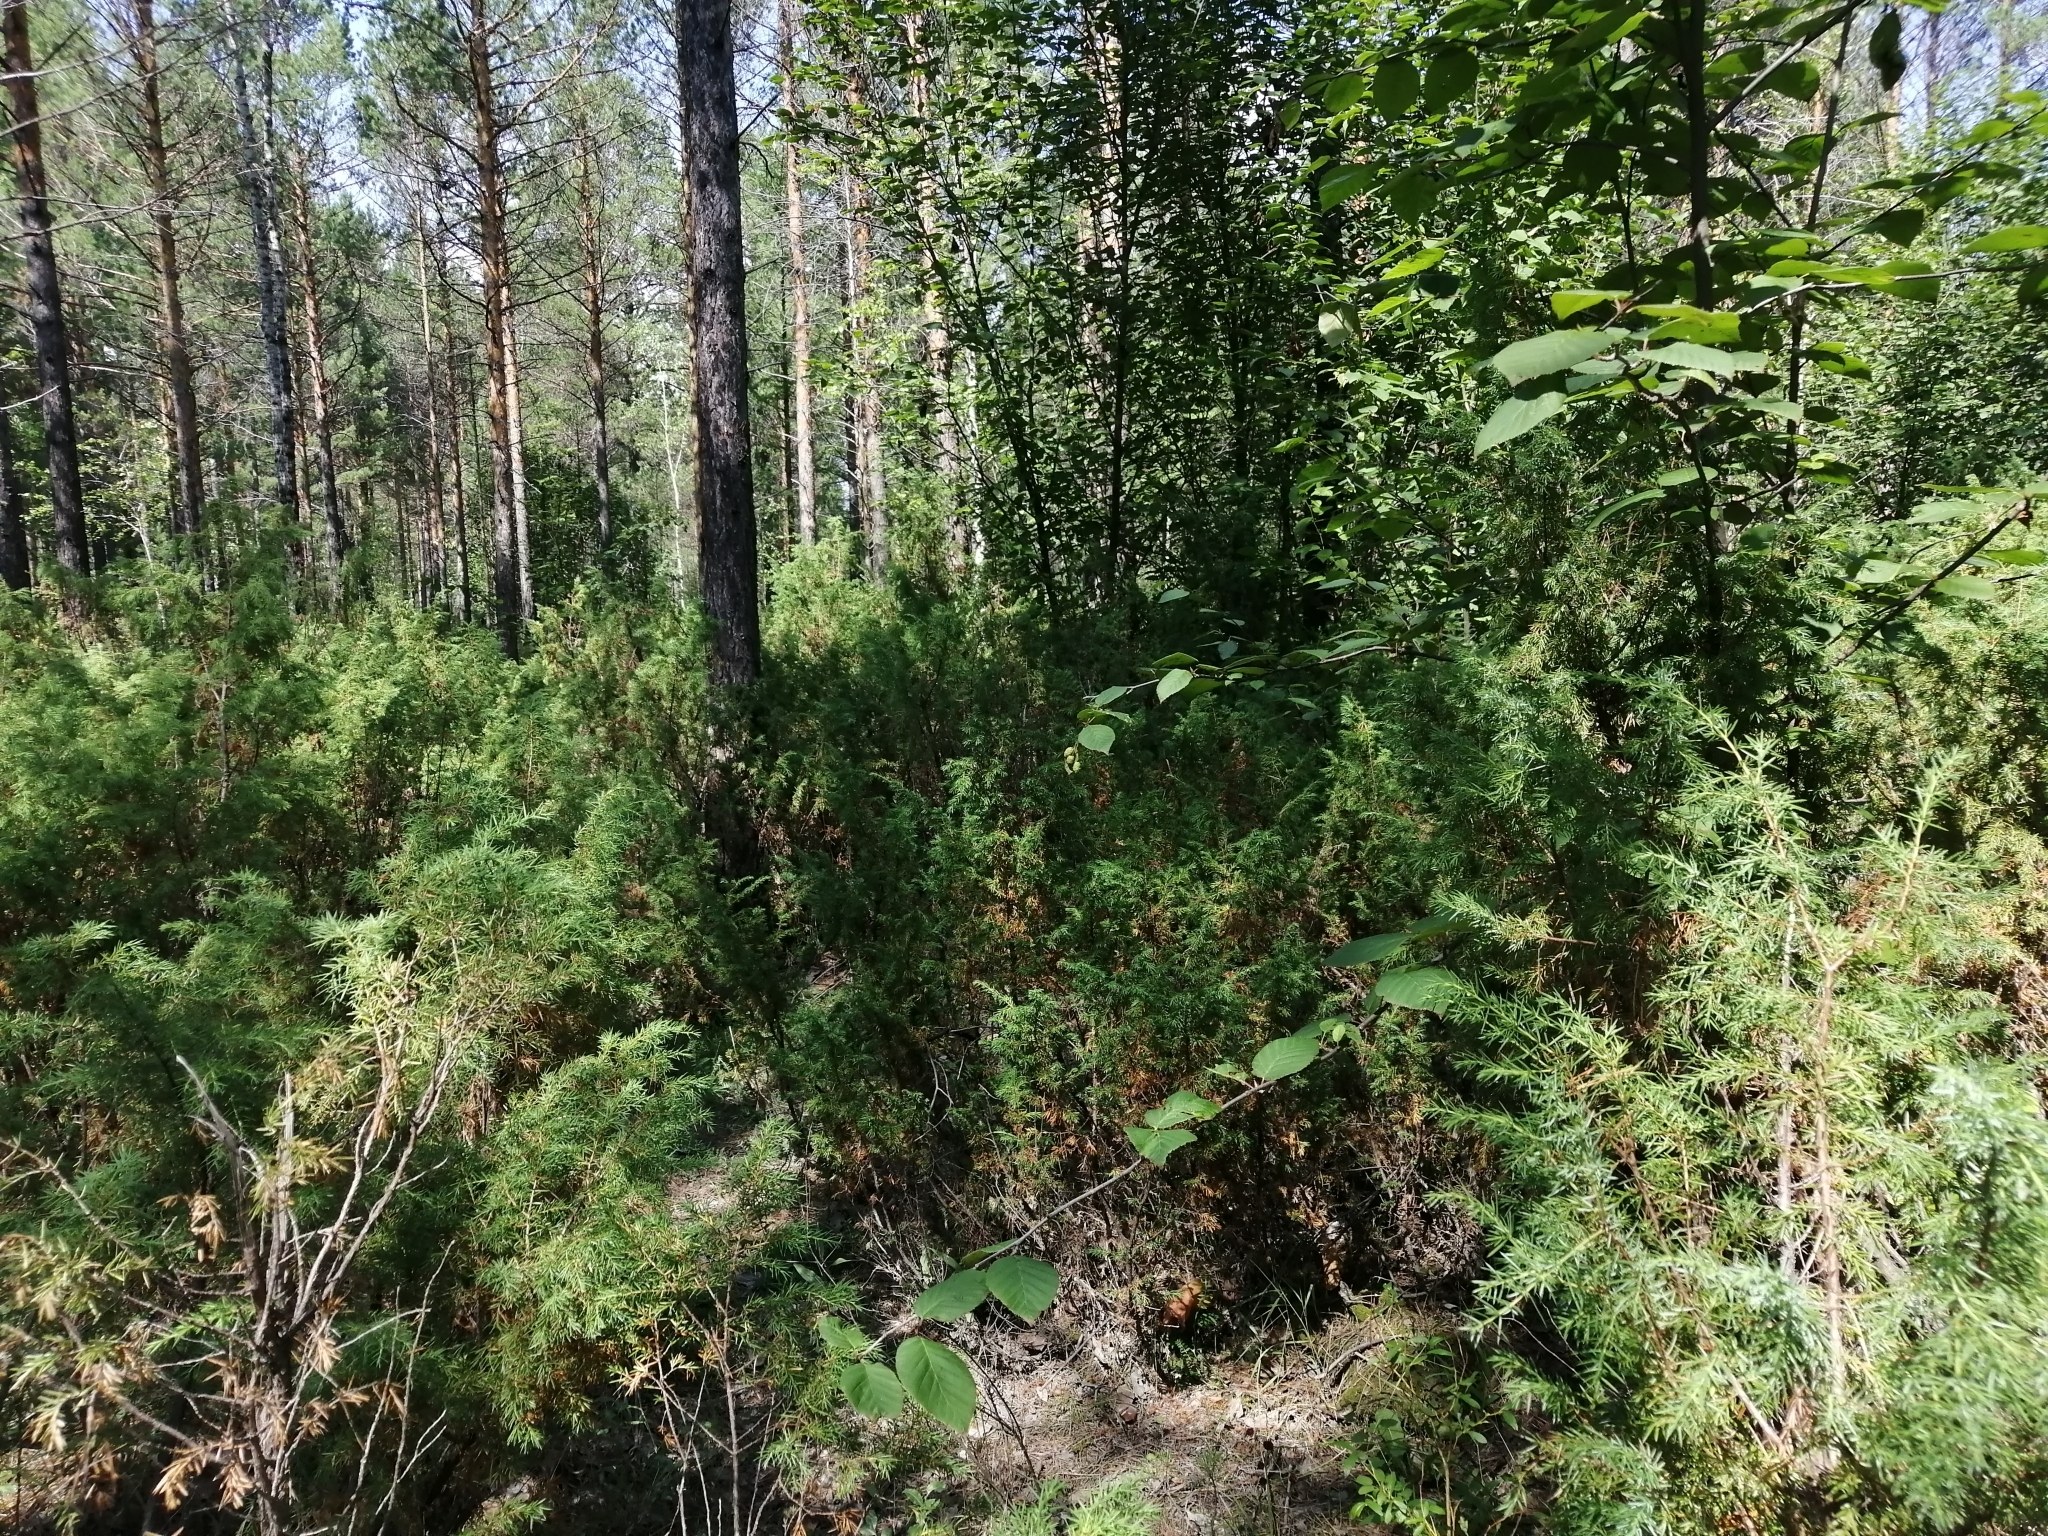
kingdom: Plantae
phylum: Tracheophyta
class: Pinopsida
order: Pinales
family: Cupressaceae
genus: Juniperus
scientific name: Juniperus communis
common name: Common juniper
